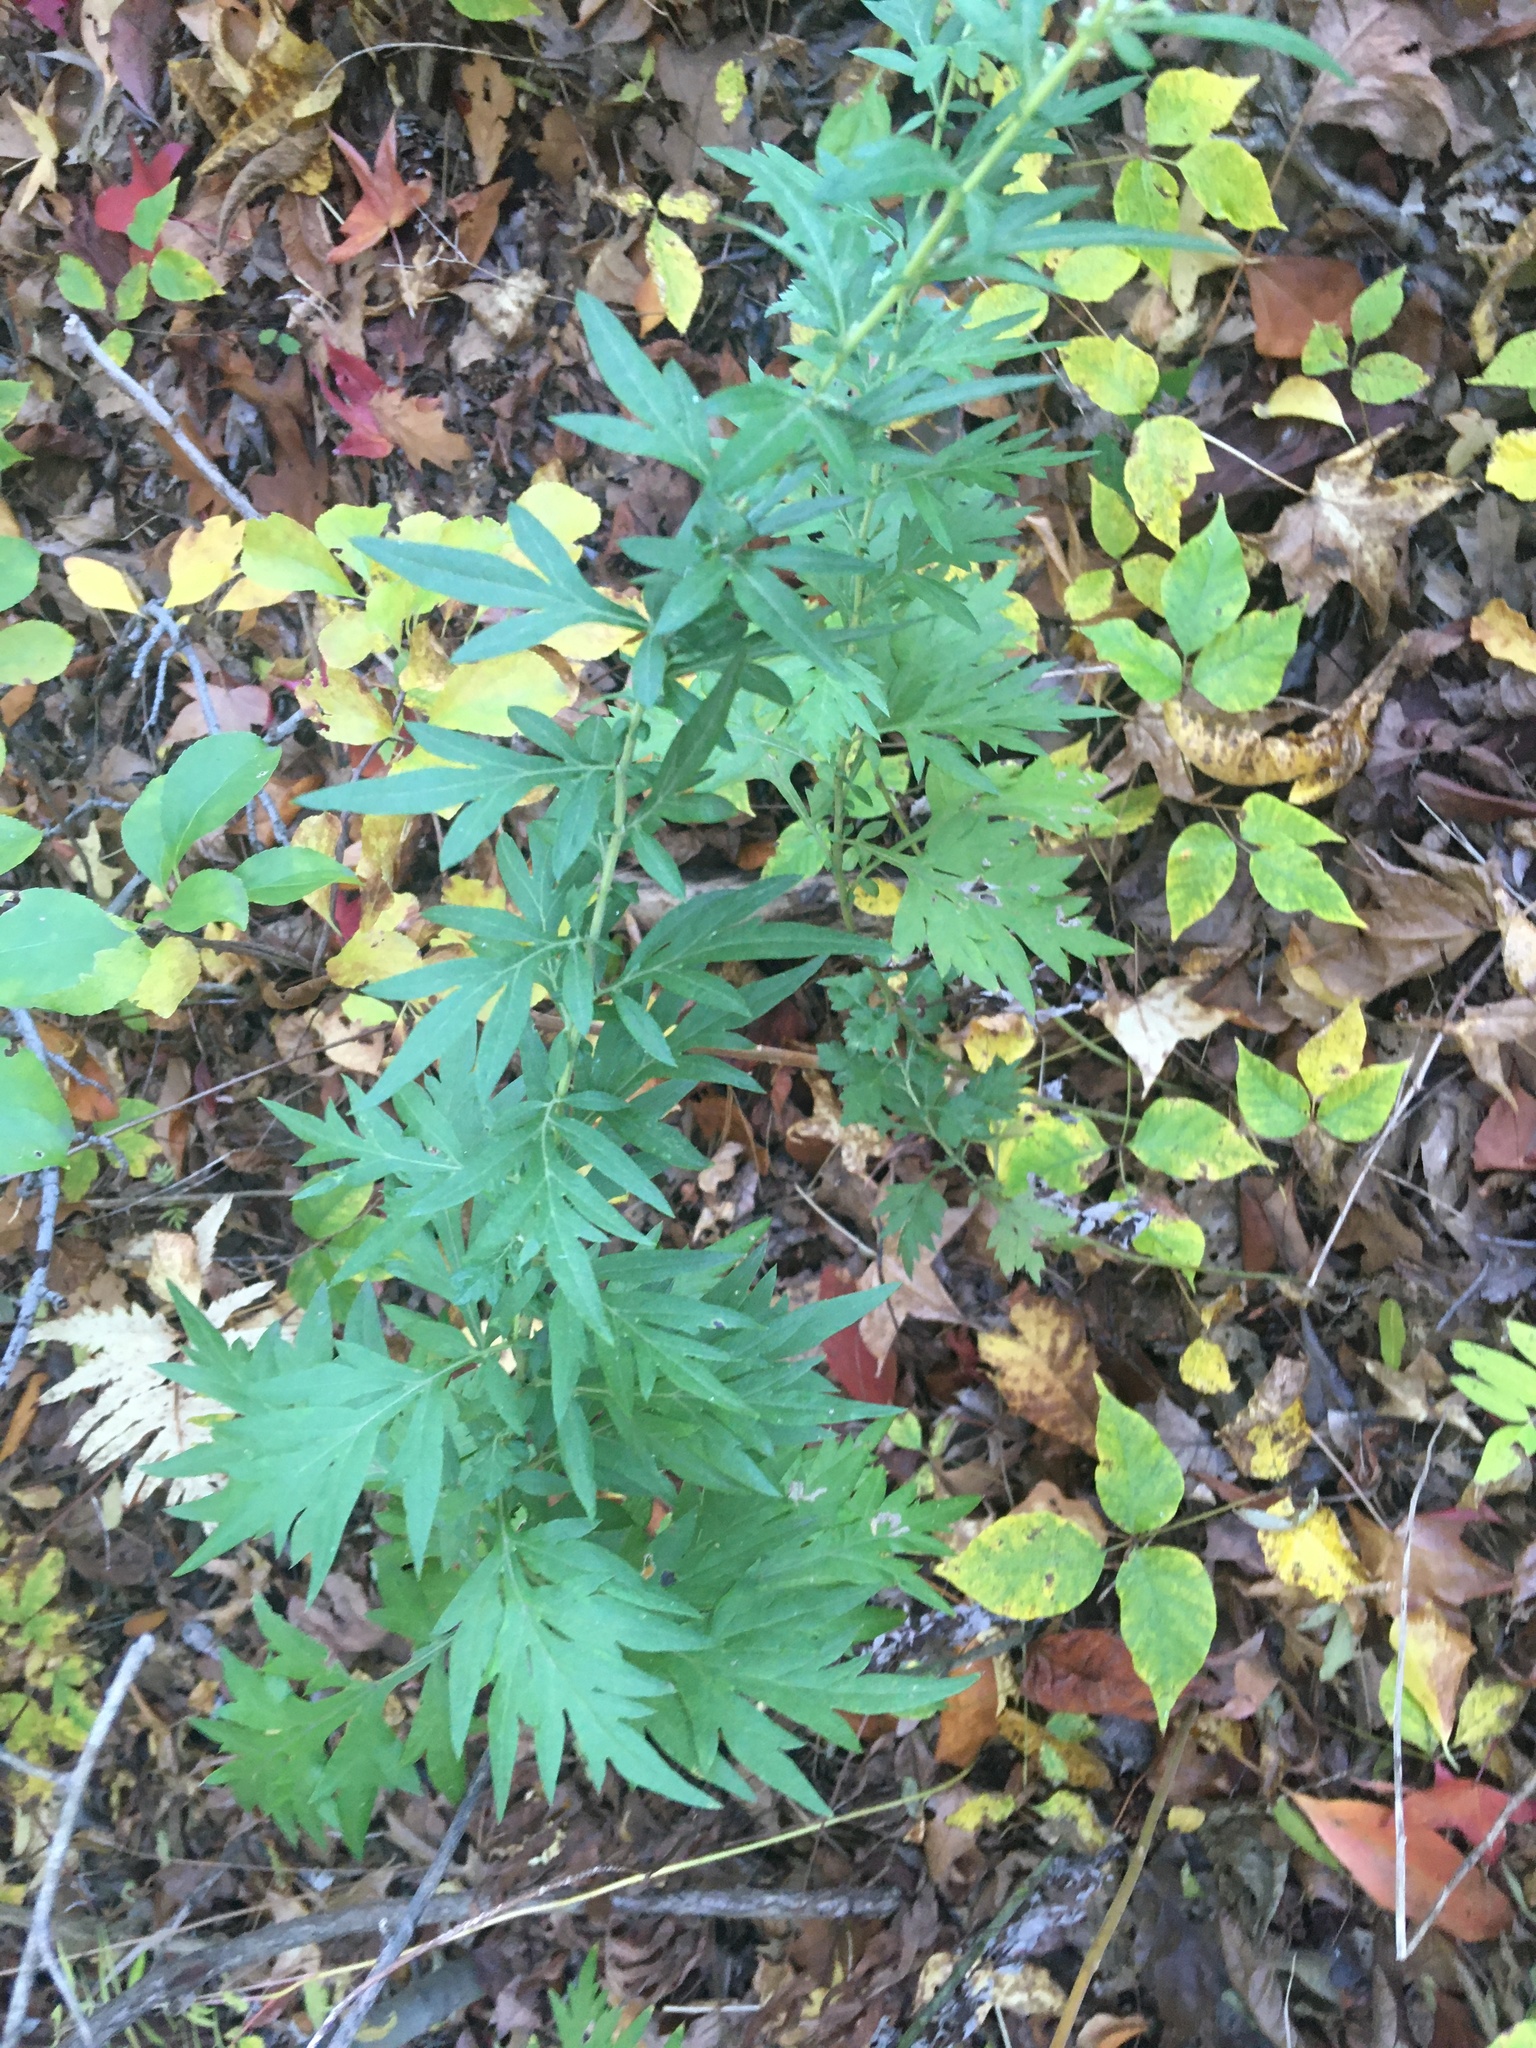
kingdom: Plantae
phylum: Tracheophyta
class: Magnoliopsida
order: Asterales
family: Asteraceae
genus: Artemisia
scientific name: Artemisia vulgaris
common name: Mugwort
